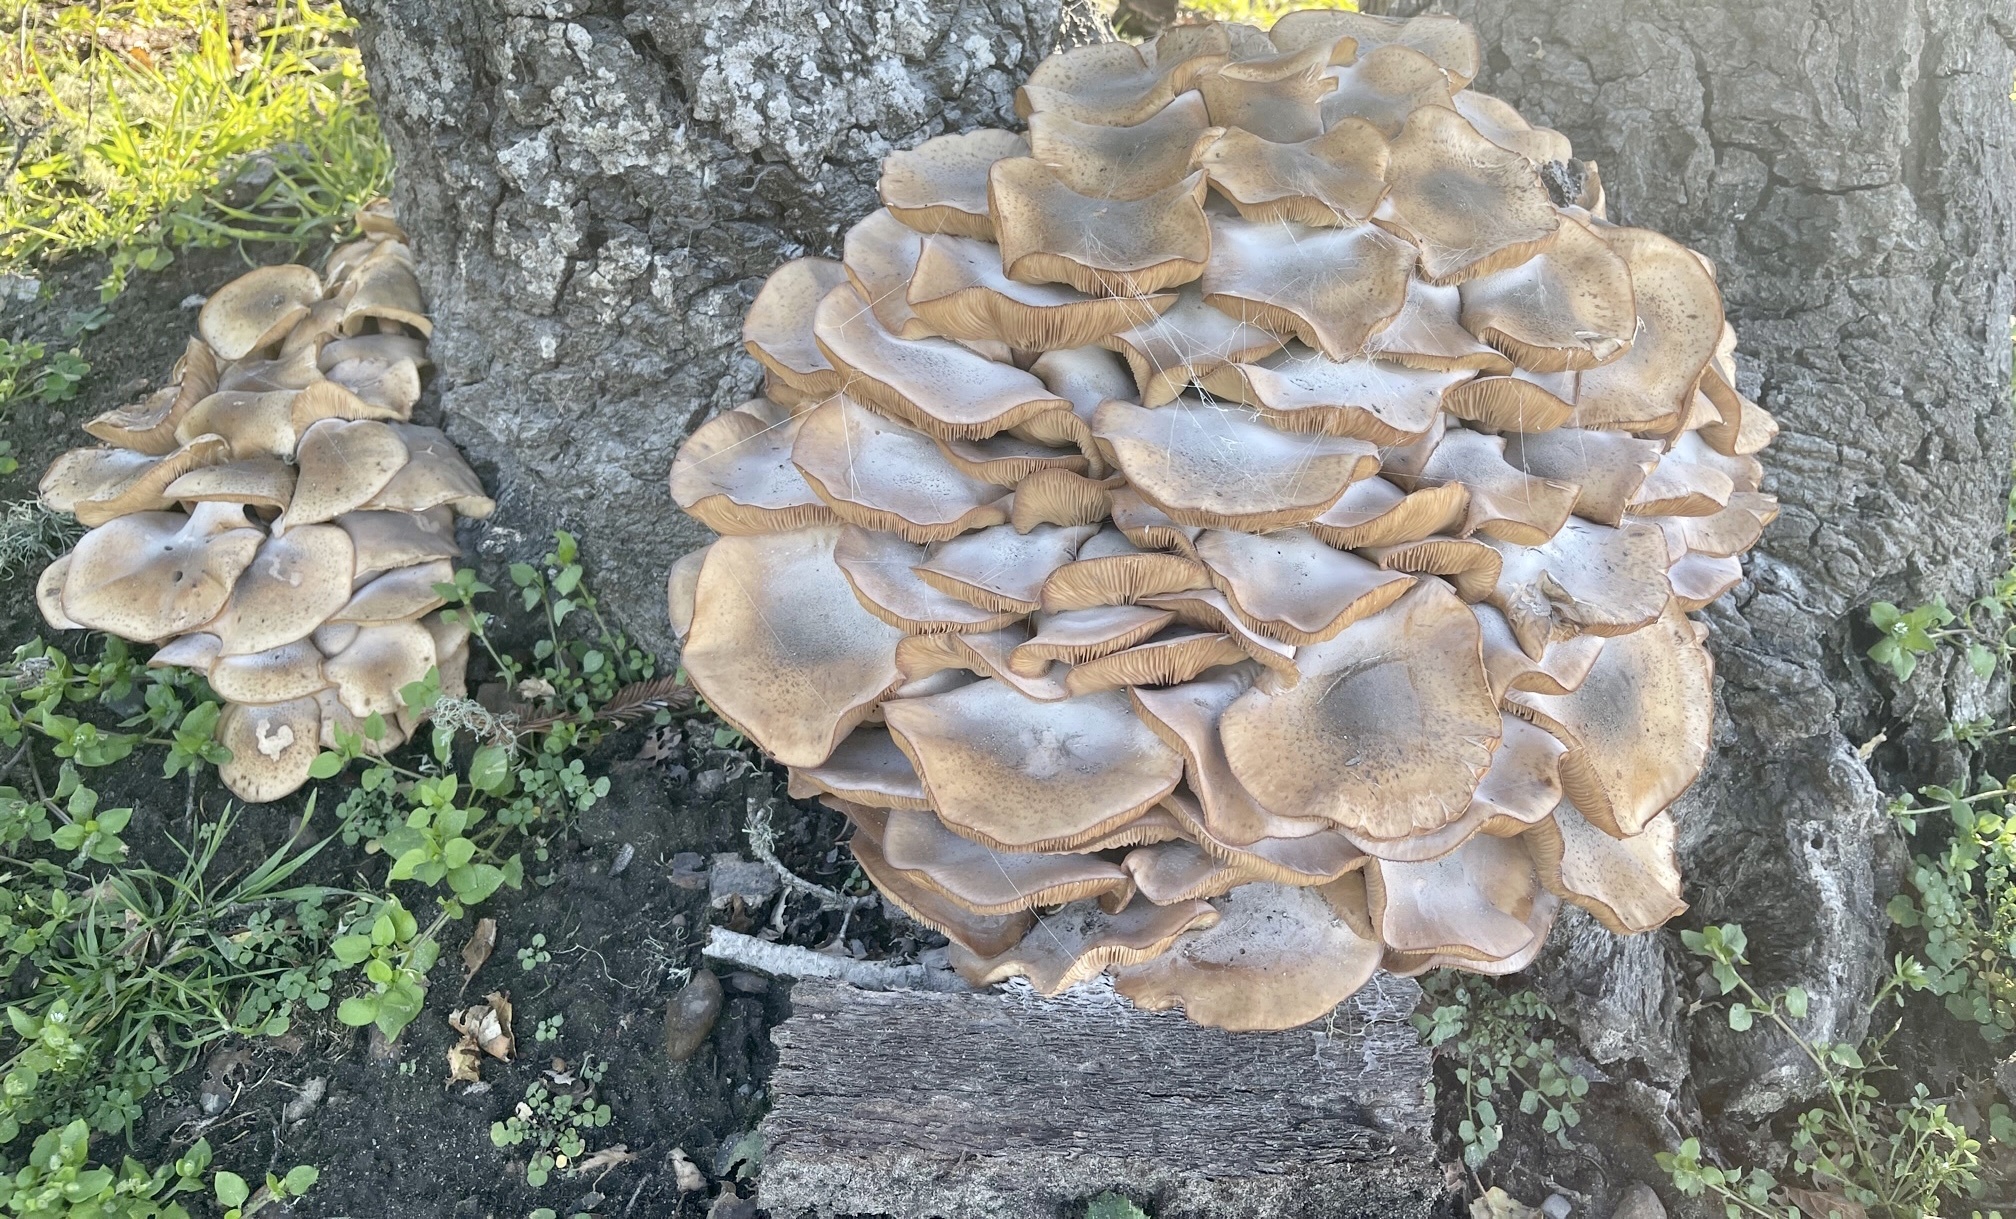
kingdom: Fungi
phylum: Basidiomycota
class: Agaricomycetes
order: Agaricales
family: Physalacriaceae
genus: Armillaria
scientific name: Armillaria mellea
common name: Honey fungus
